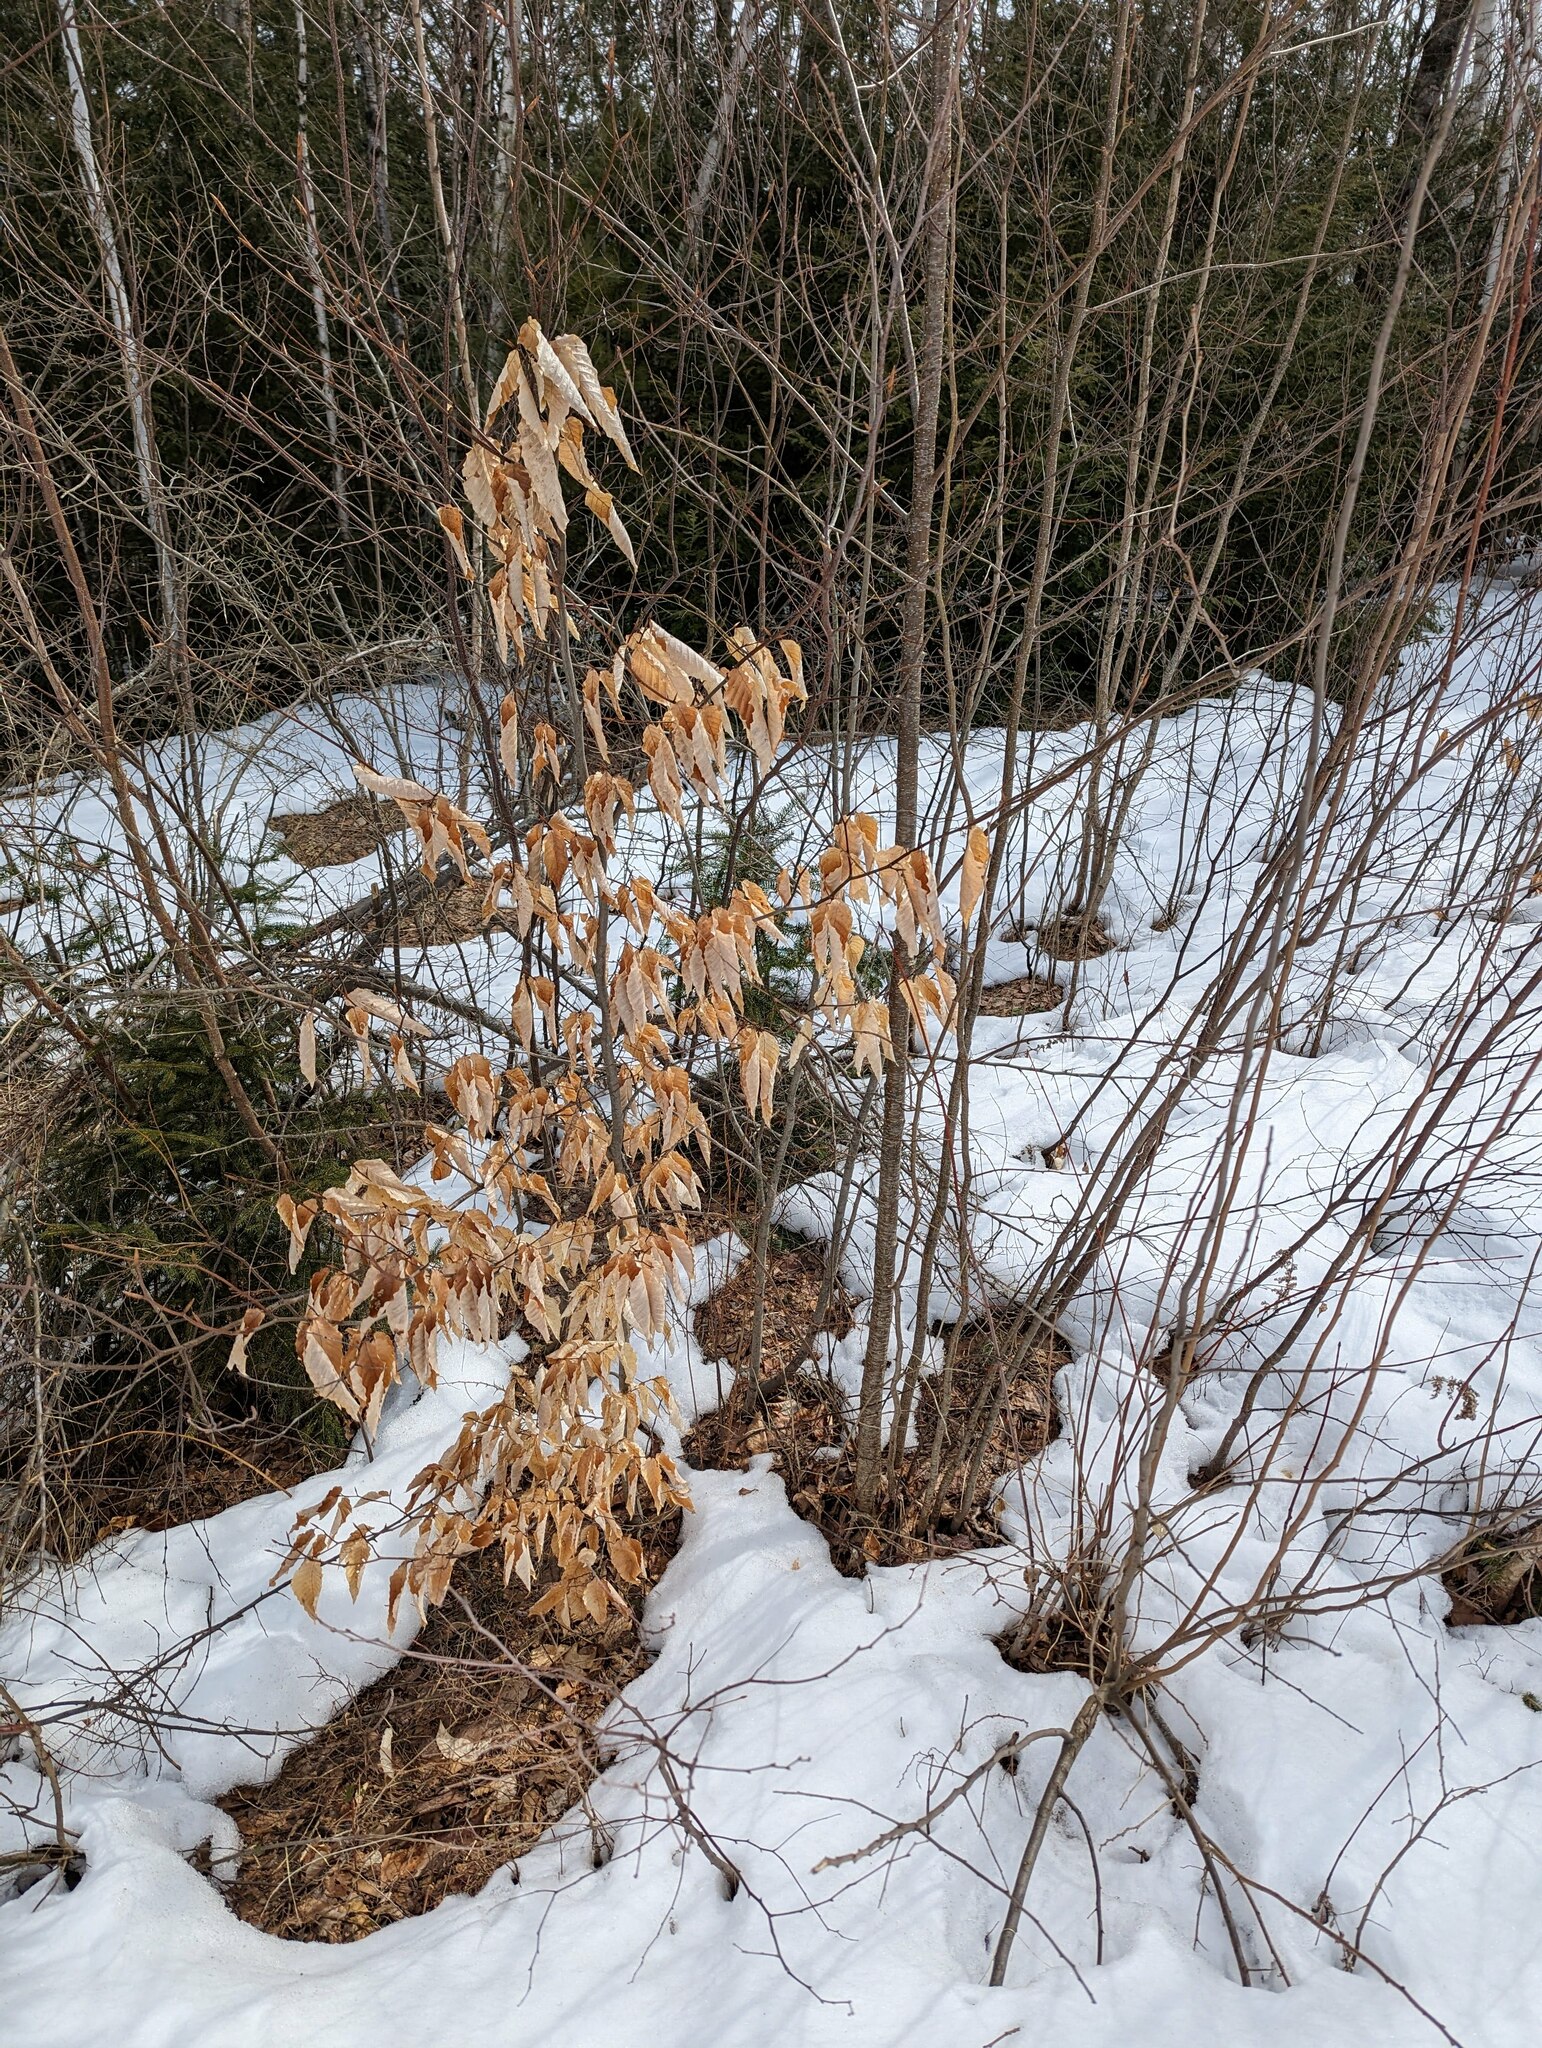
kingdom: Plantae
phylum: Tracheophyta
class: Magnoliopsida
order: Fagales
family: Fagaceae
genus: Fagus
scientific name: Fagus grandifolia
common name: American beech
